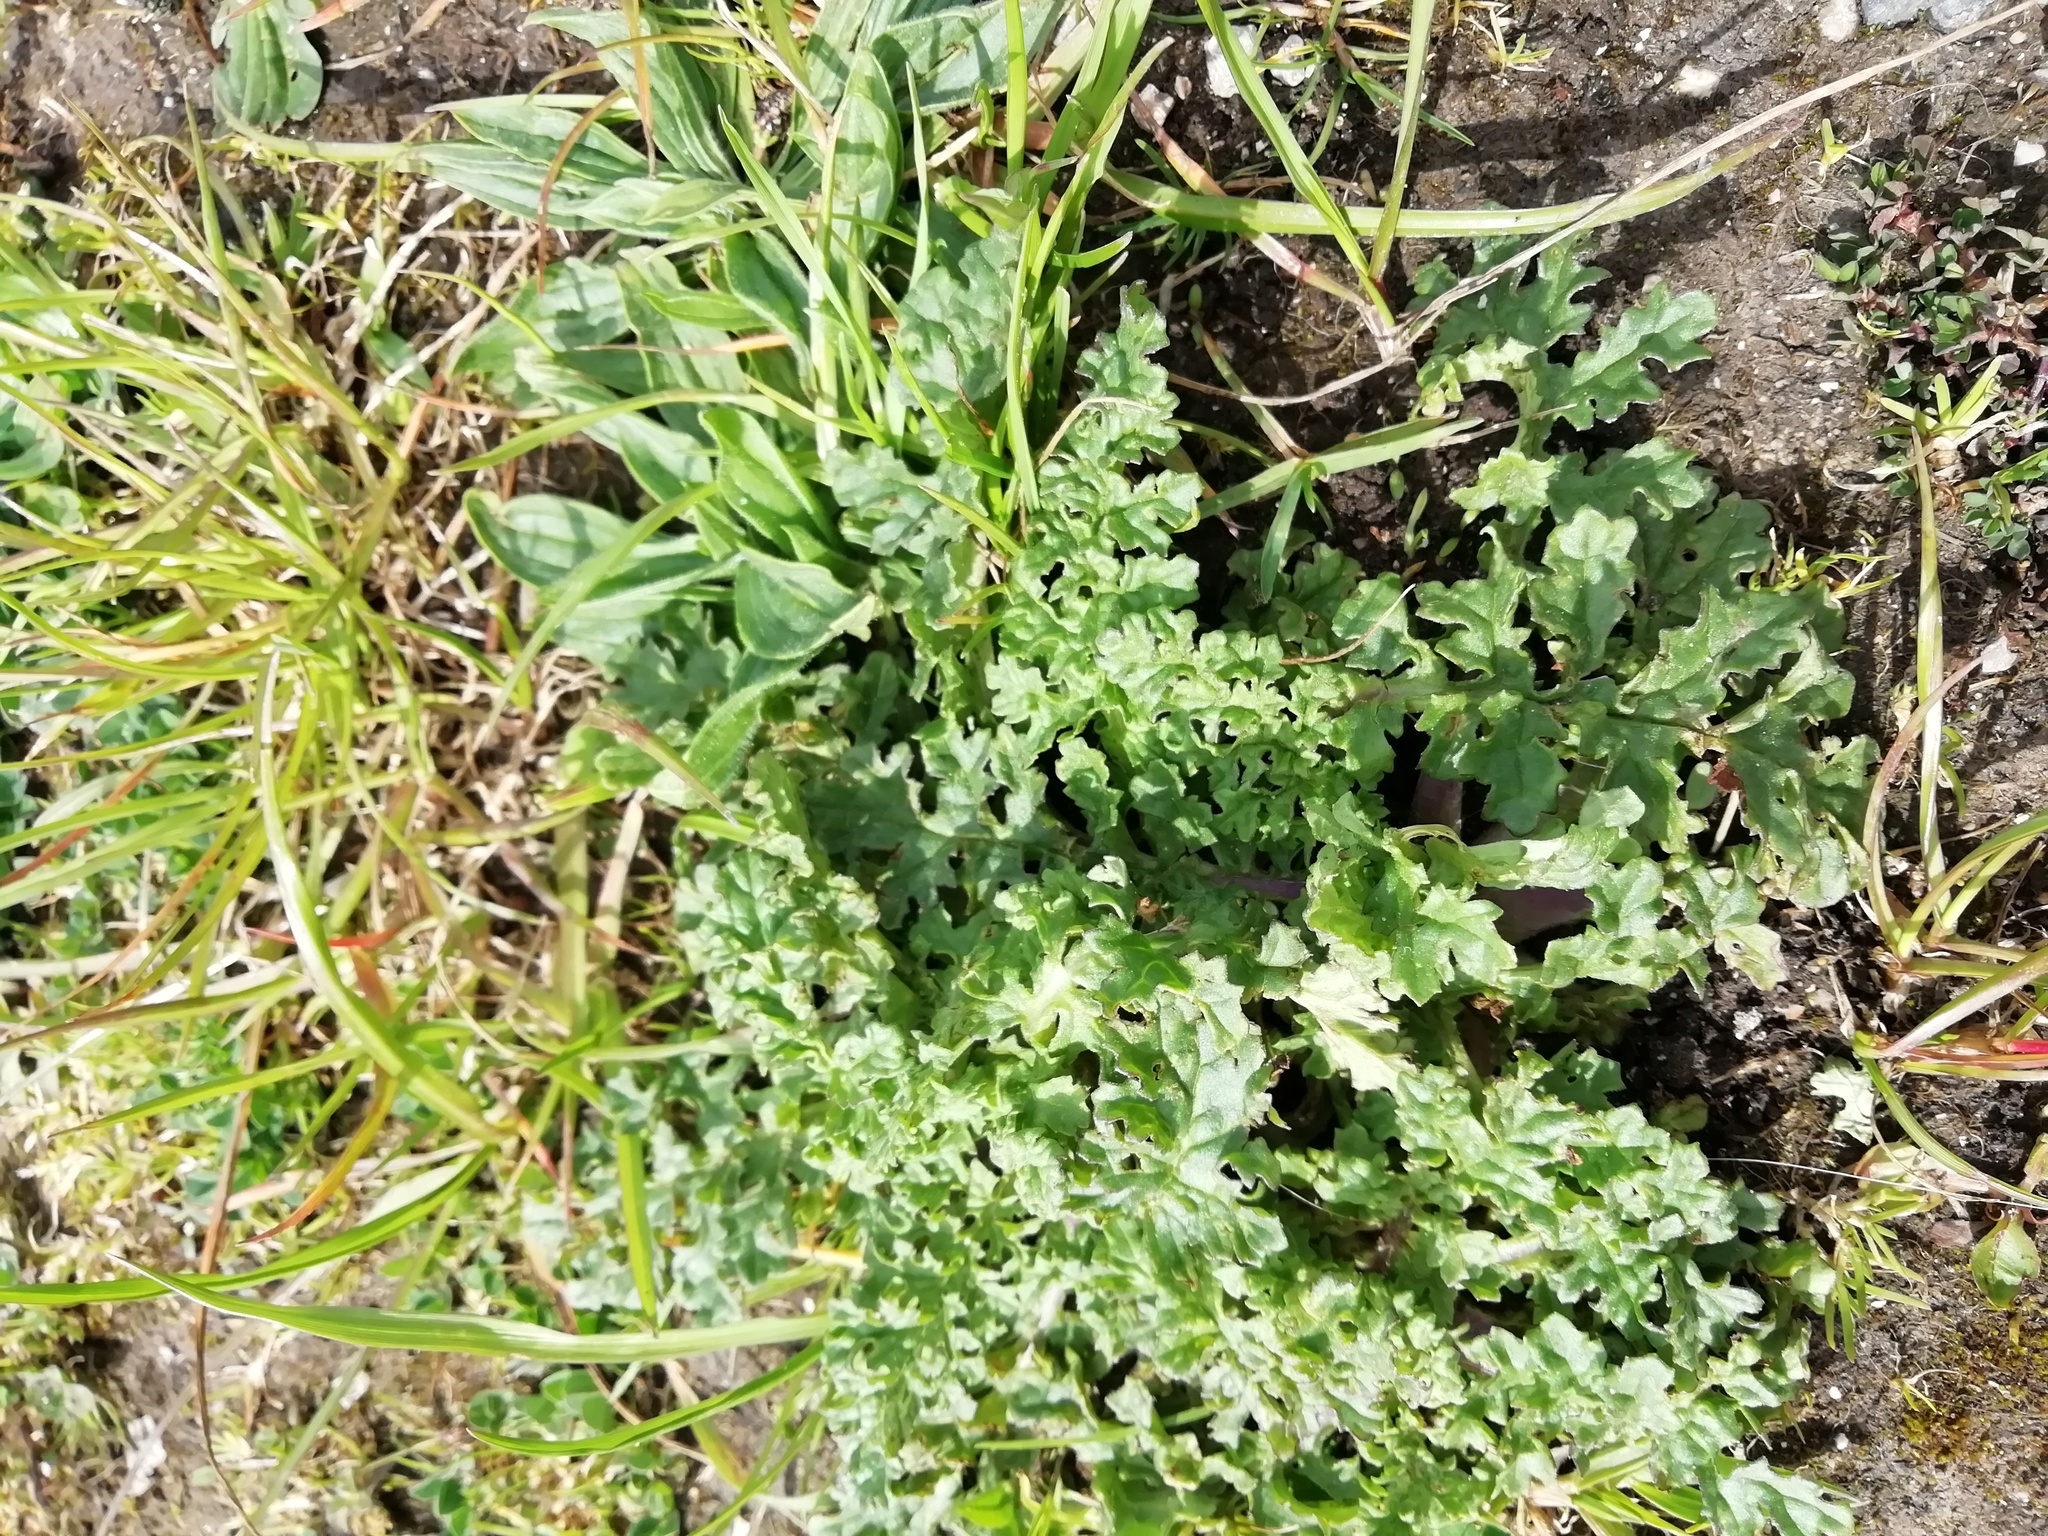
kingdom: Plantae
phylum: Tracheophyta
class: Magnoliopsida
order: Asterales
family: Asteraceae
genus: Jacobaea
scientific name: Jacobaea vulgaris
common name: Stinking willie
